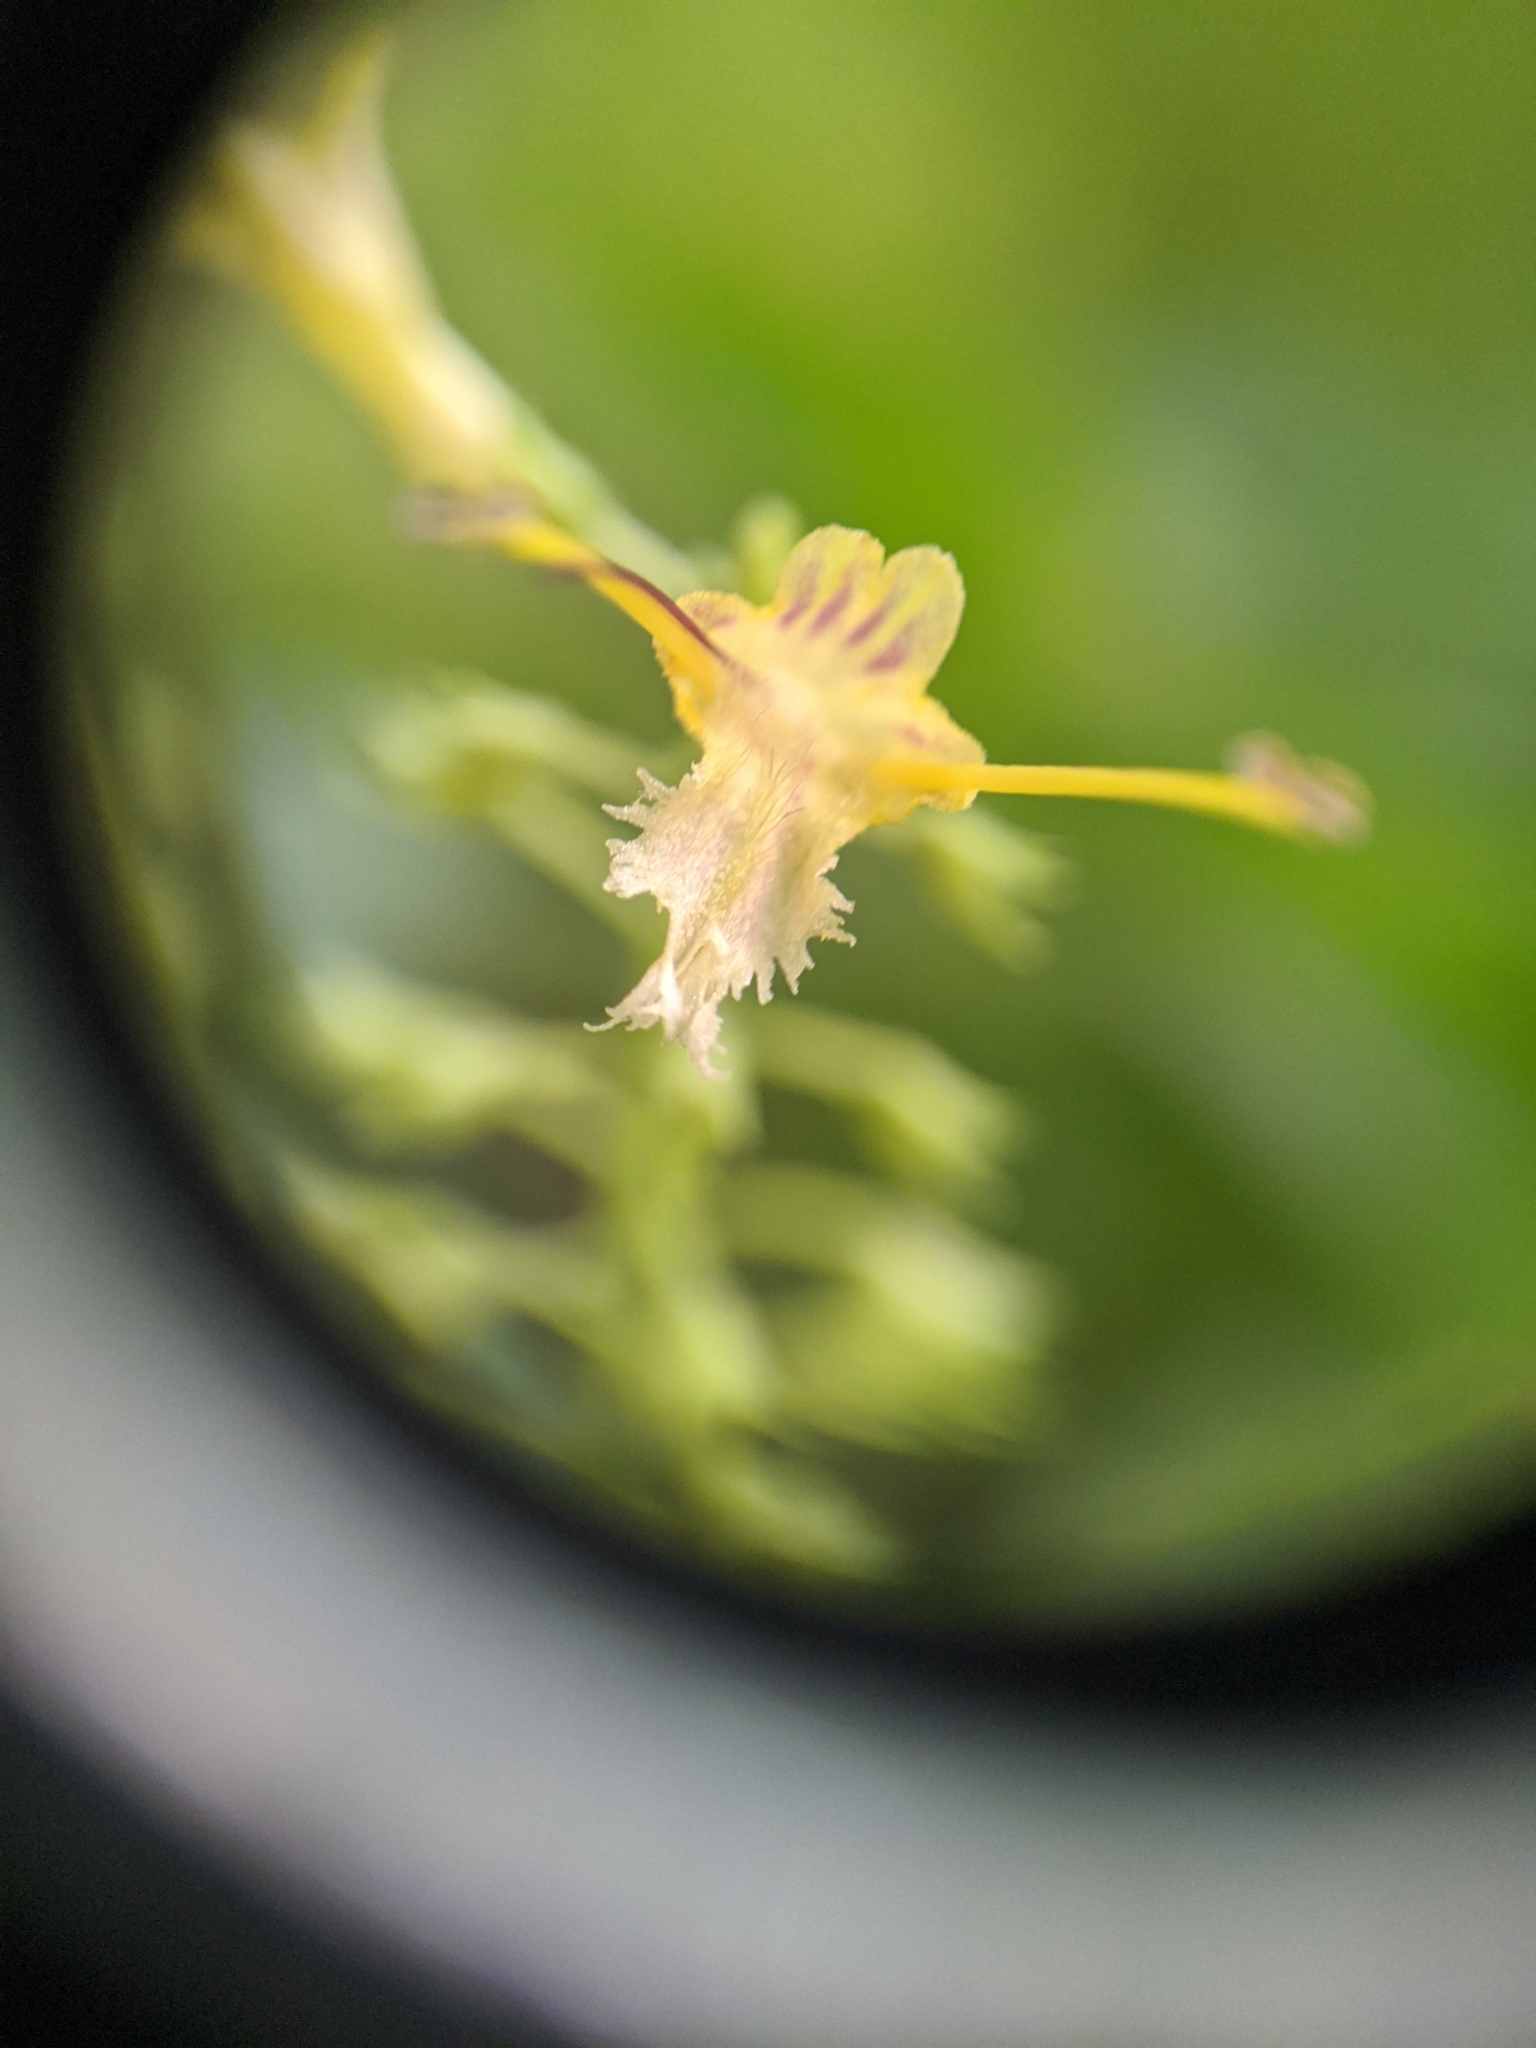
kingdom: Plantae
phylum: Tracheophyta
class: Magnoliopsida
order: Lamiales
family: Lamiaceae
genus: Collinsonia
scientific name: Collinsonia canadensis
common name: Northern horsebalm
